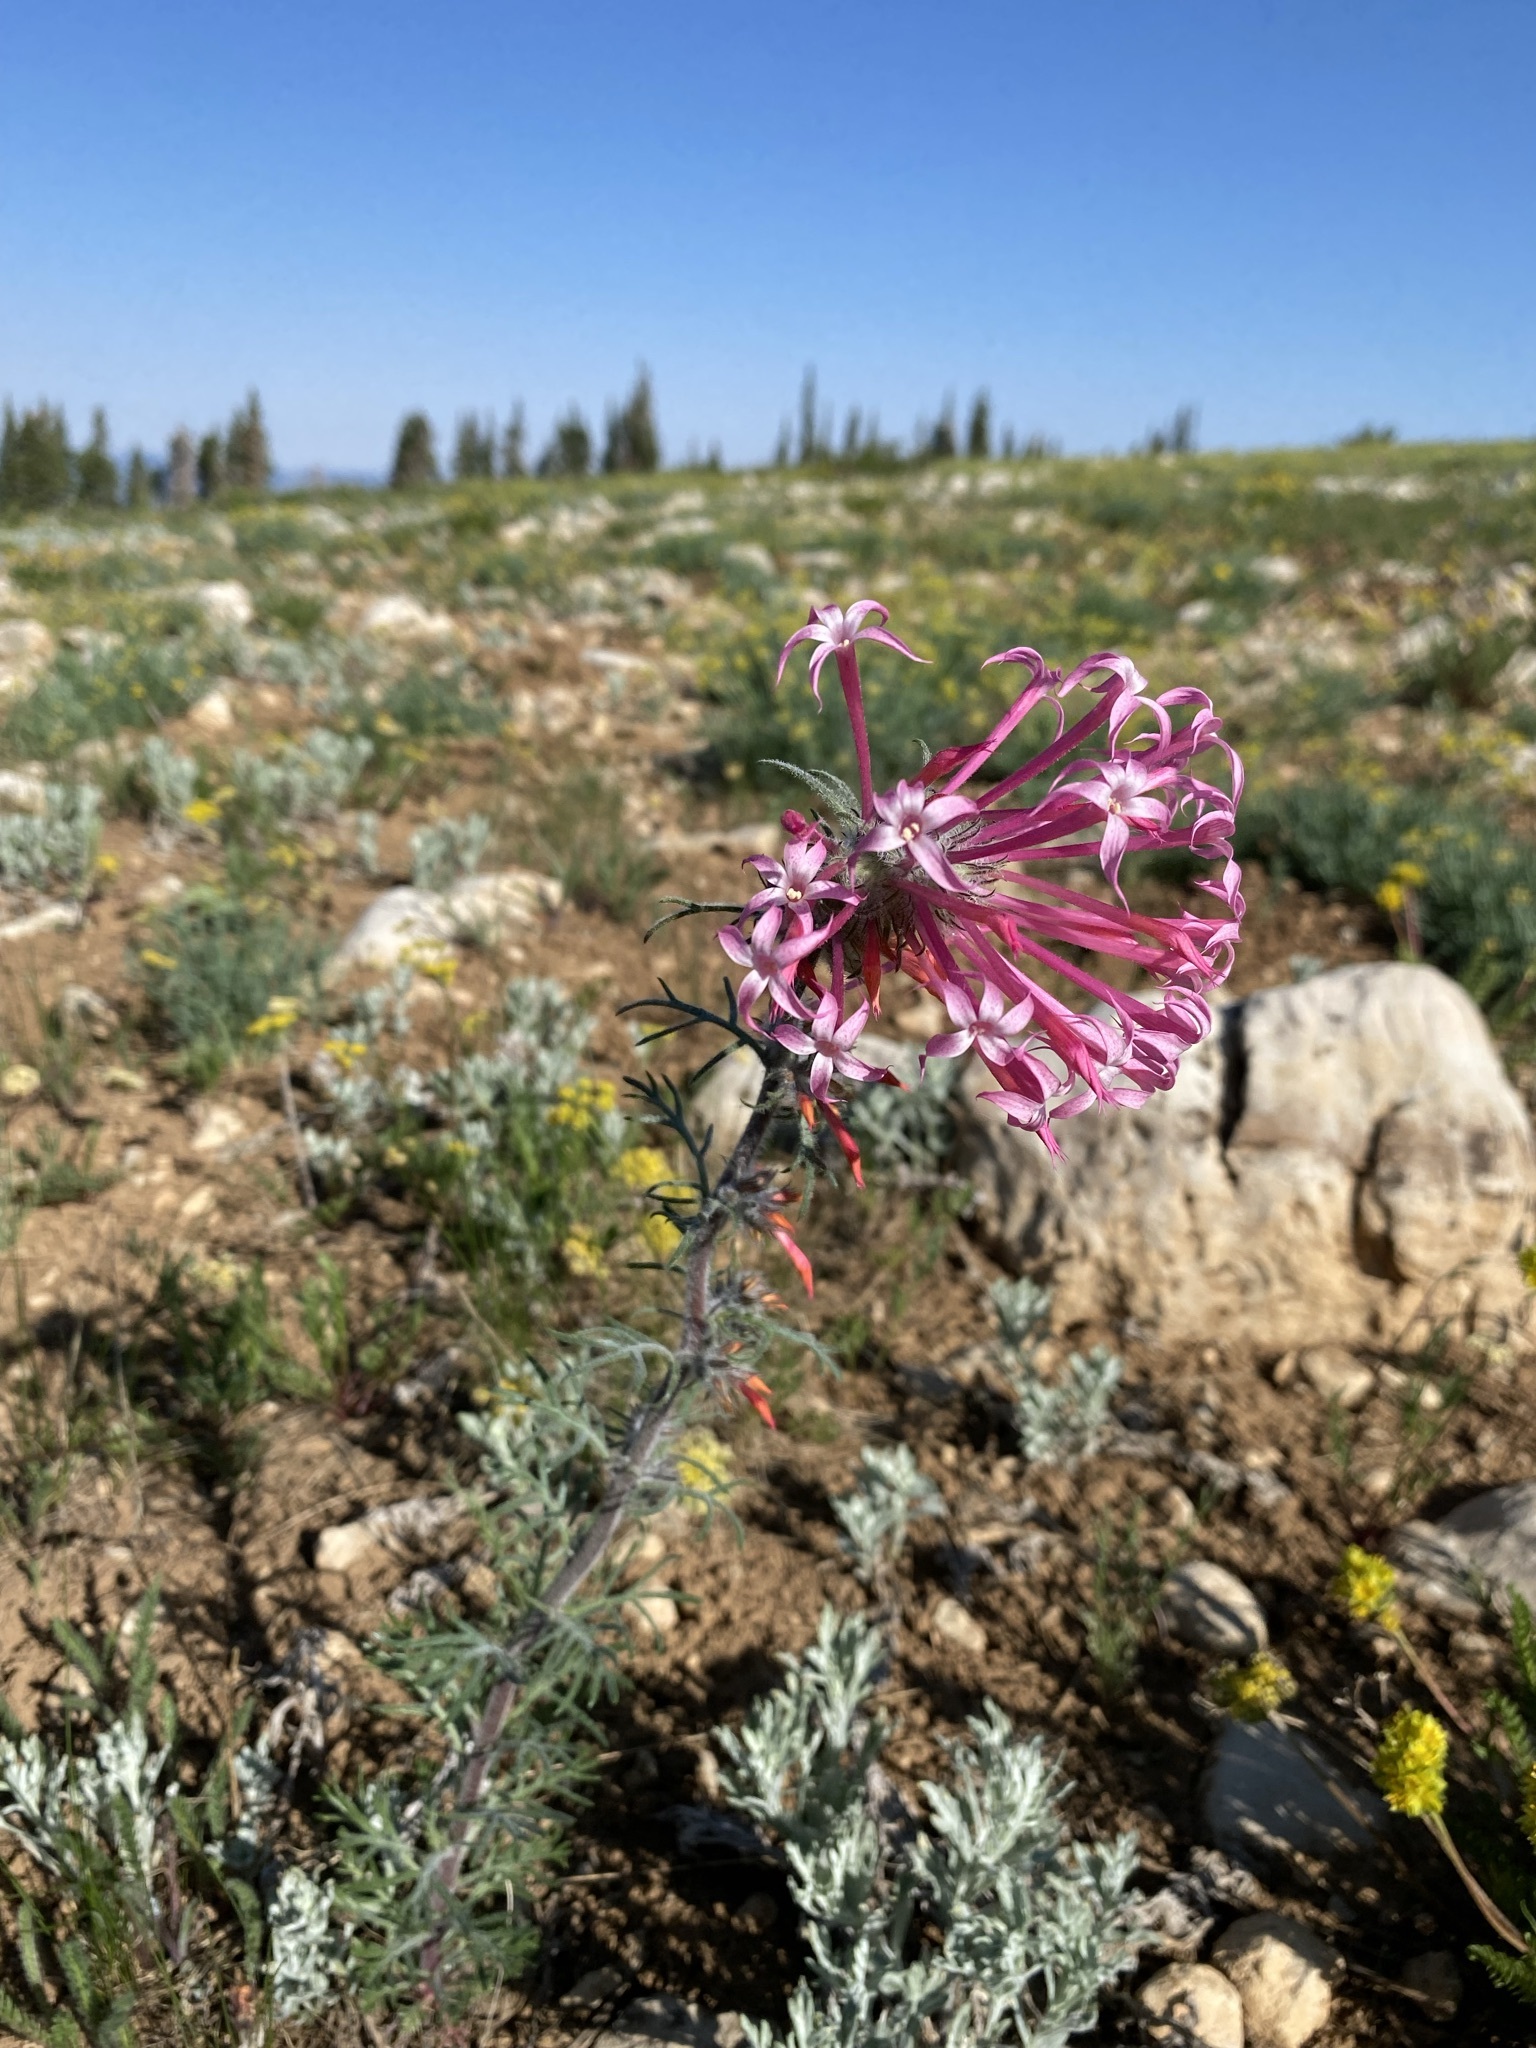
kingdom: Plantae
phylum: Tracheophyta
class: Magnoliopsida
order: Ericales
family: Polemoniaceae
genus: Ipomopsis
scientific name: Ipomopsis tenuituba
